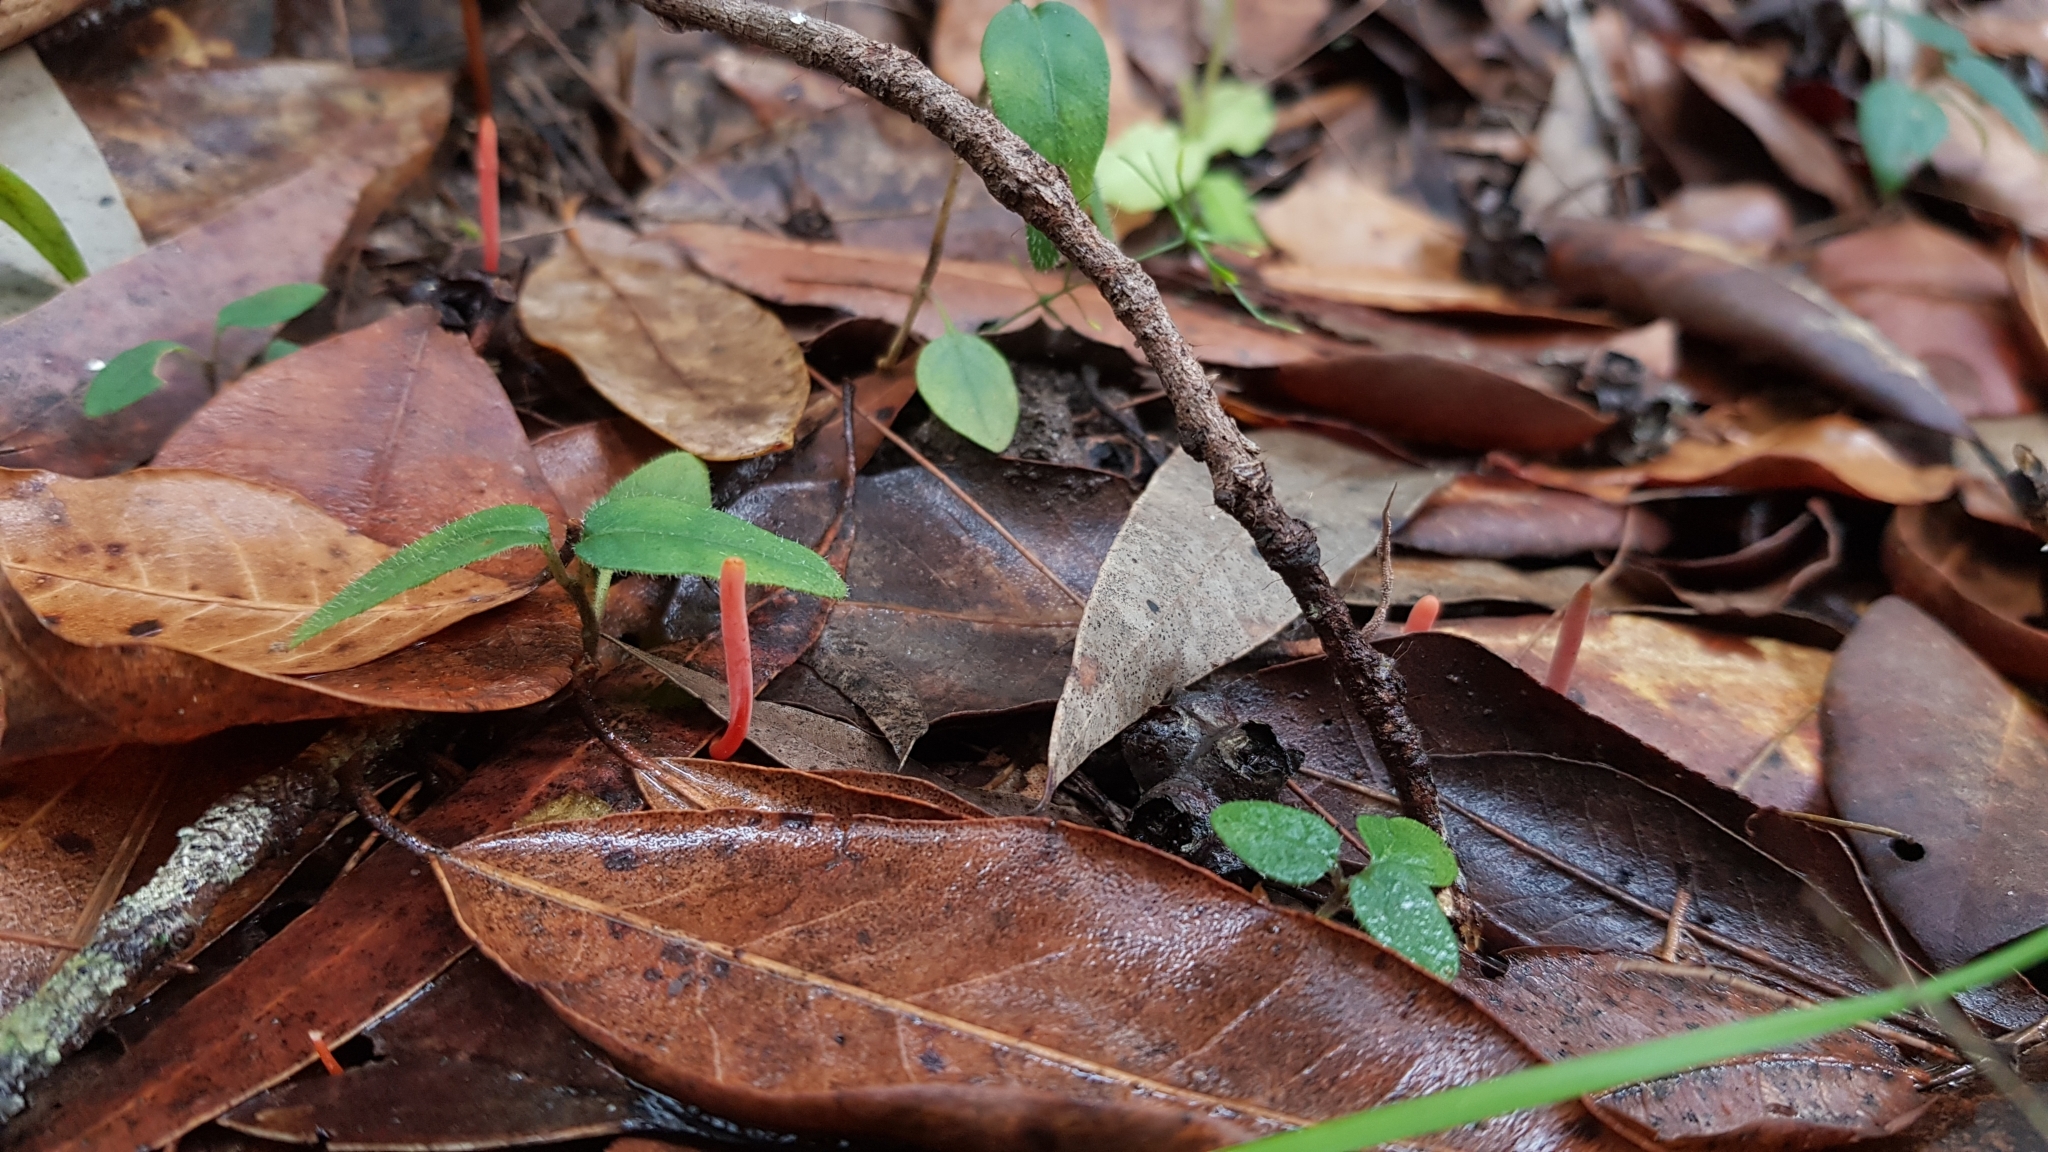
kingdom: Fungi
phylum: Basidiomycota
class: Agaricomycetes
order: Agaricales
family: Clavariaceae
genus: Clavulinopsis
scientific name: Clavulinopsis corallinorosacea
